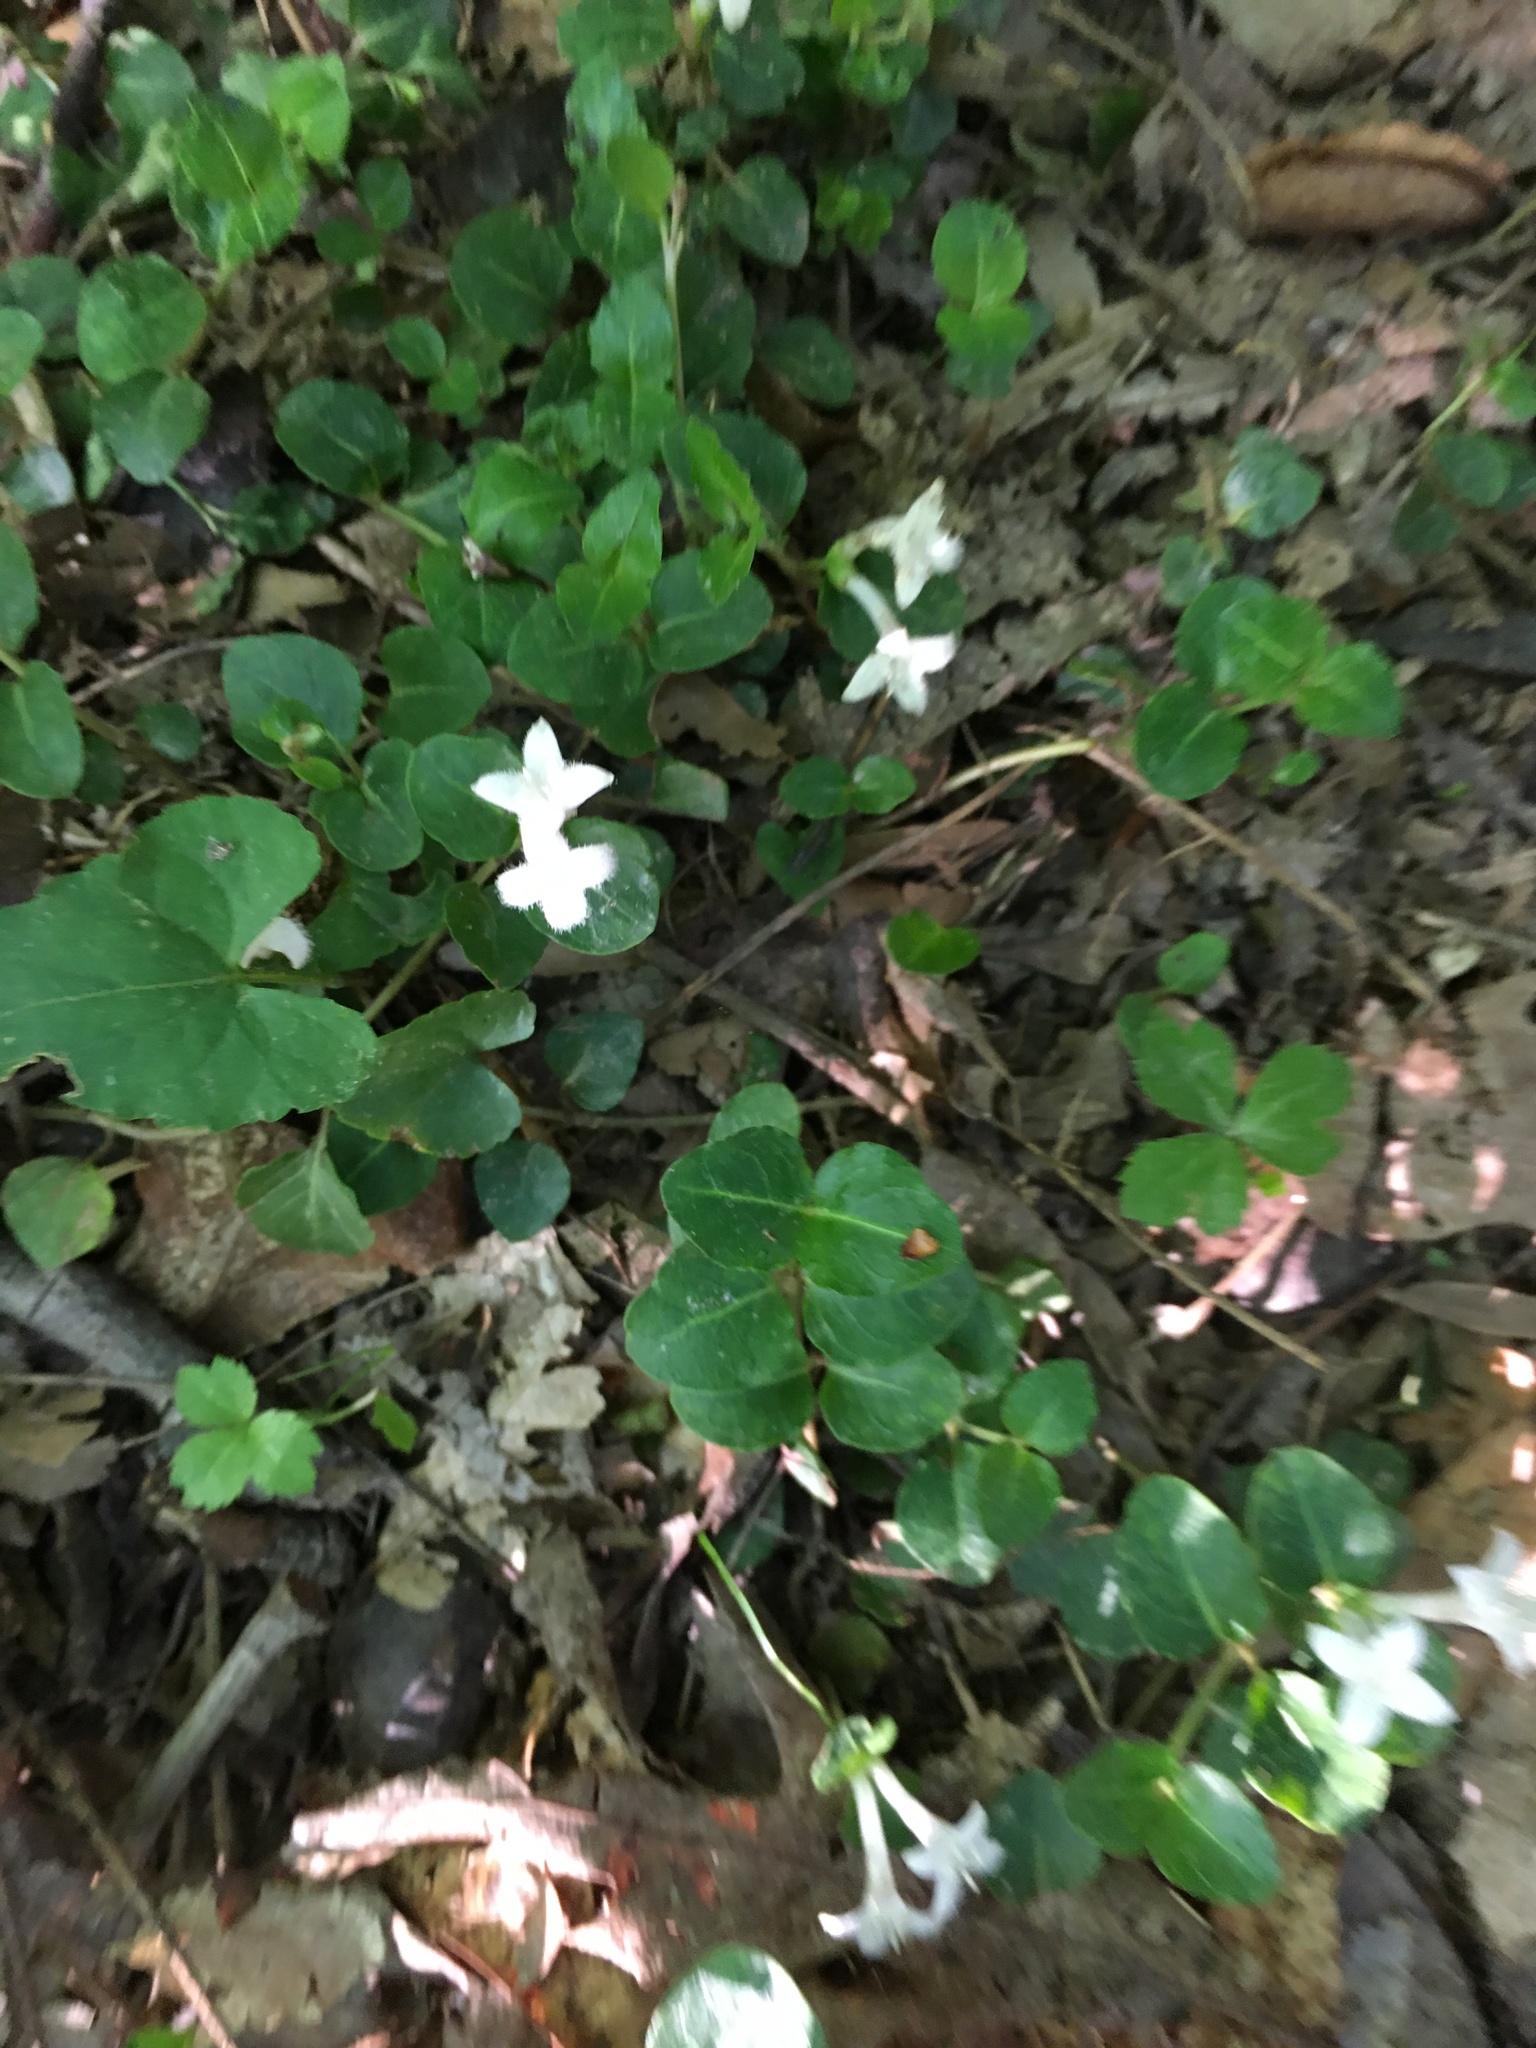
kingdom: Plantae
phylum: Tracheophyta
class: Magnoliopsida
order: Gentianales
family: Rubiaceae
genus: Mitchella
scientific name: Mitchella repens
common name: Partridge-berry
